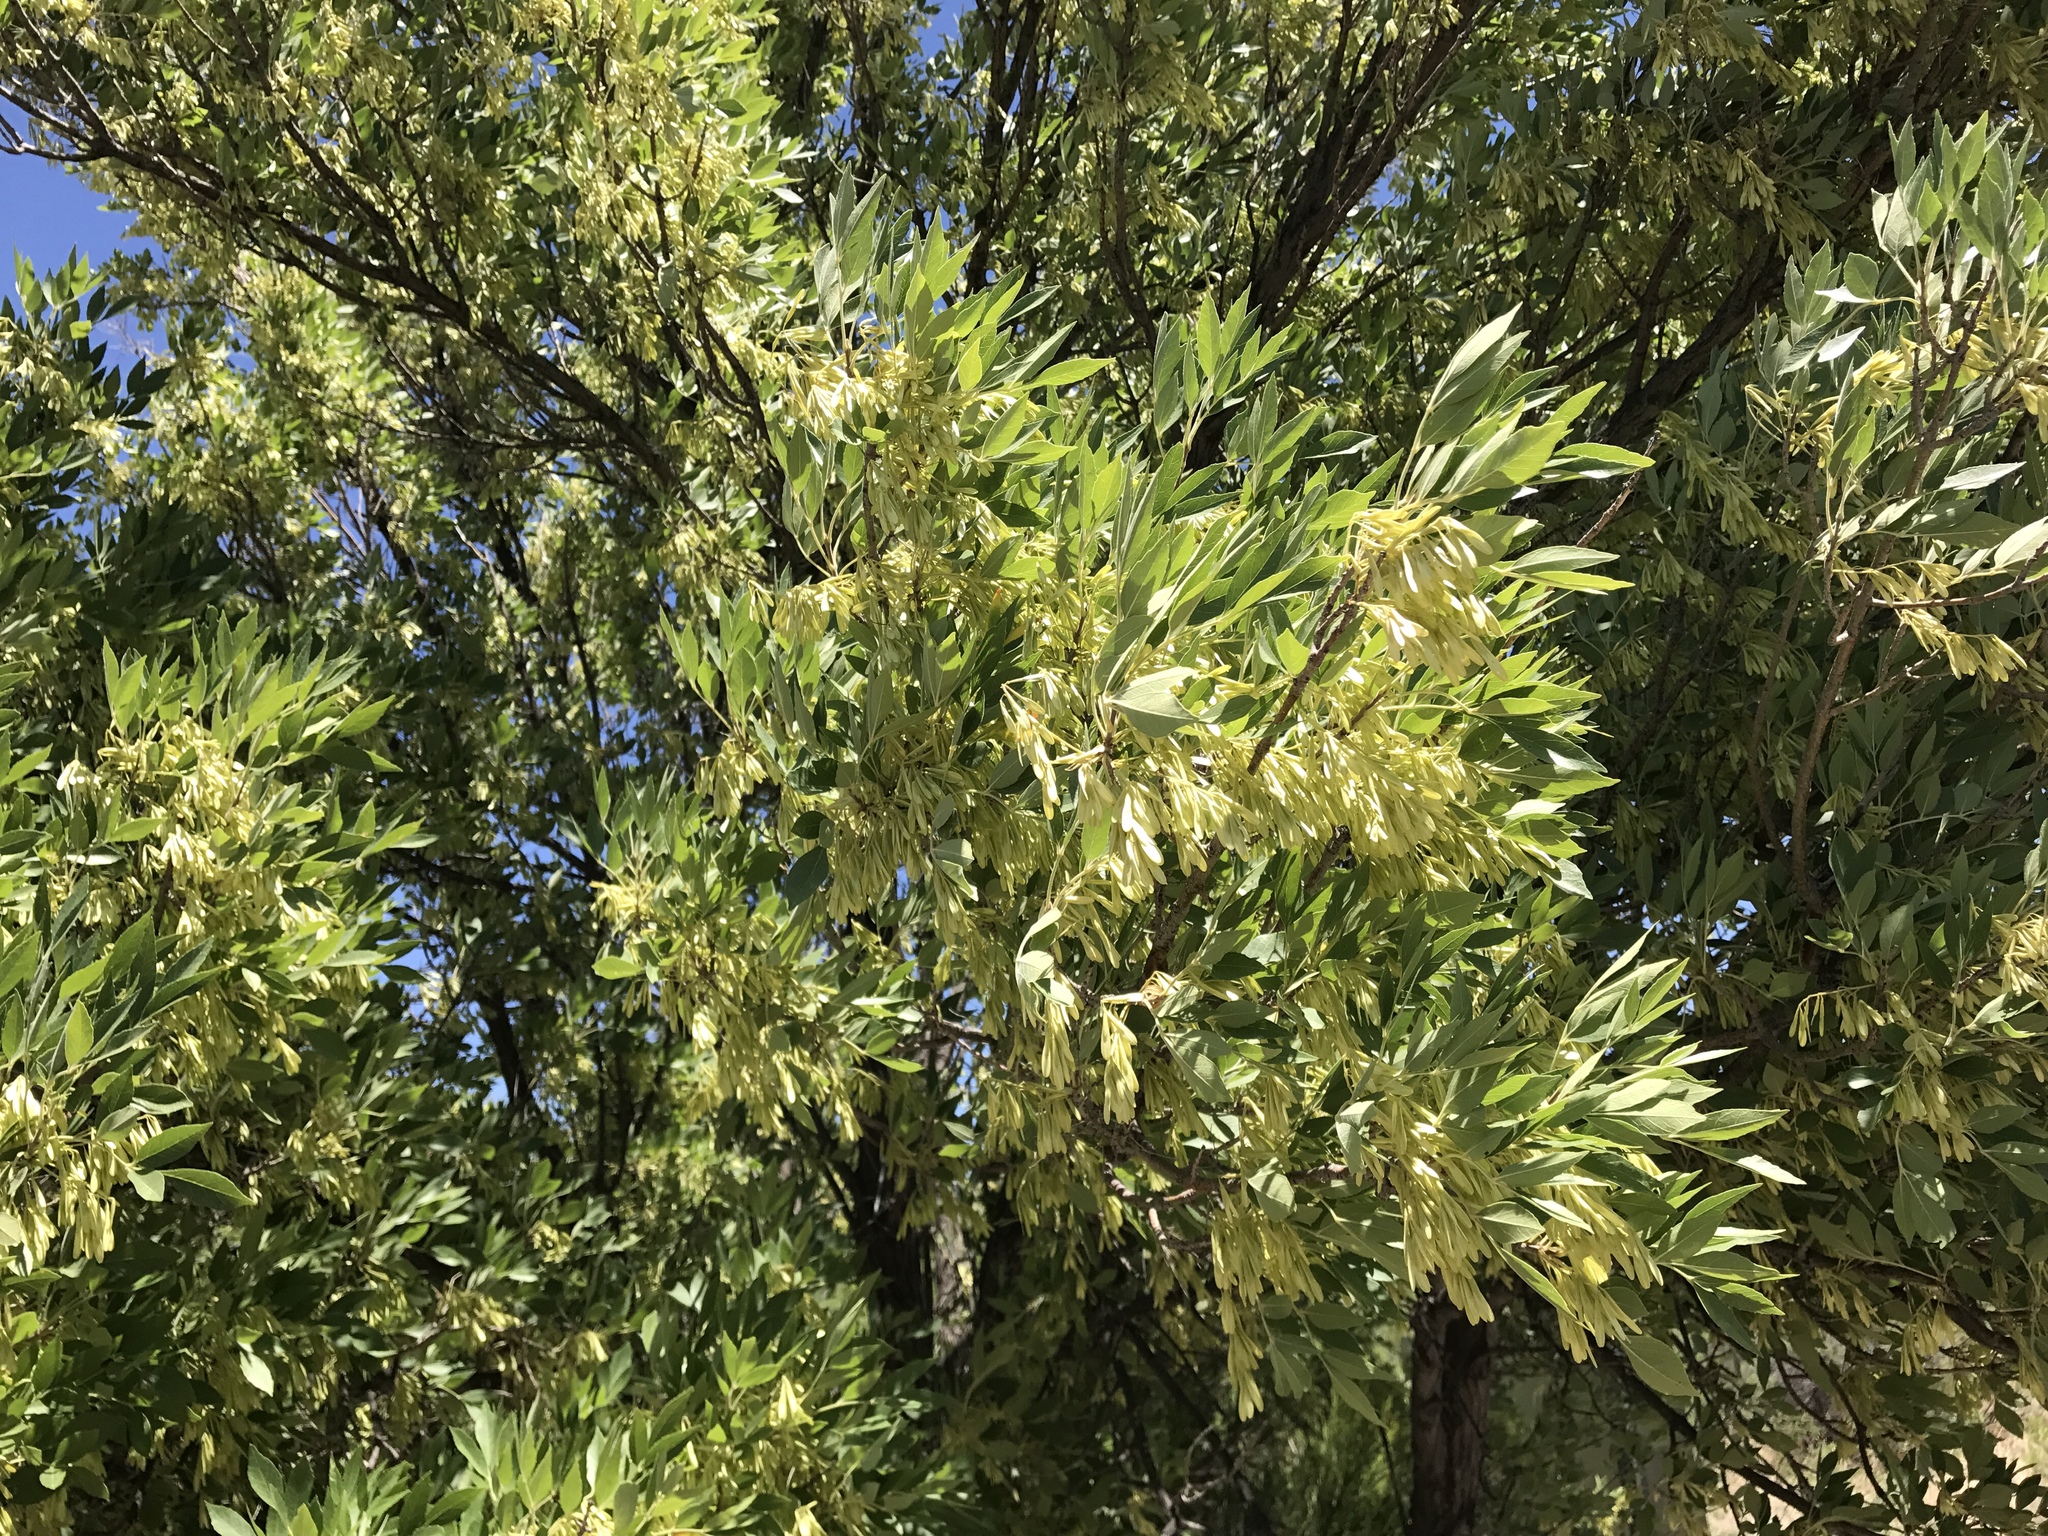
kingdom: Plantae
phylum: Tracheophyta
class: Magnoliopsida
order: Lamiales
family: Oleaceae
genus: Fraxinus
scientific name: Fraxinus velutina
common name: Arizon ash
